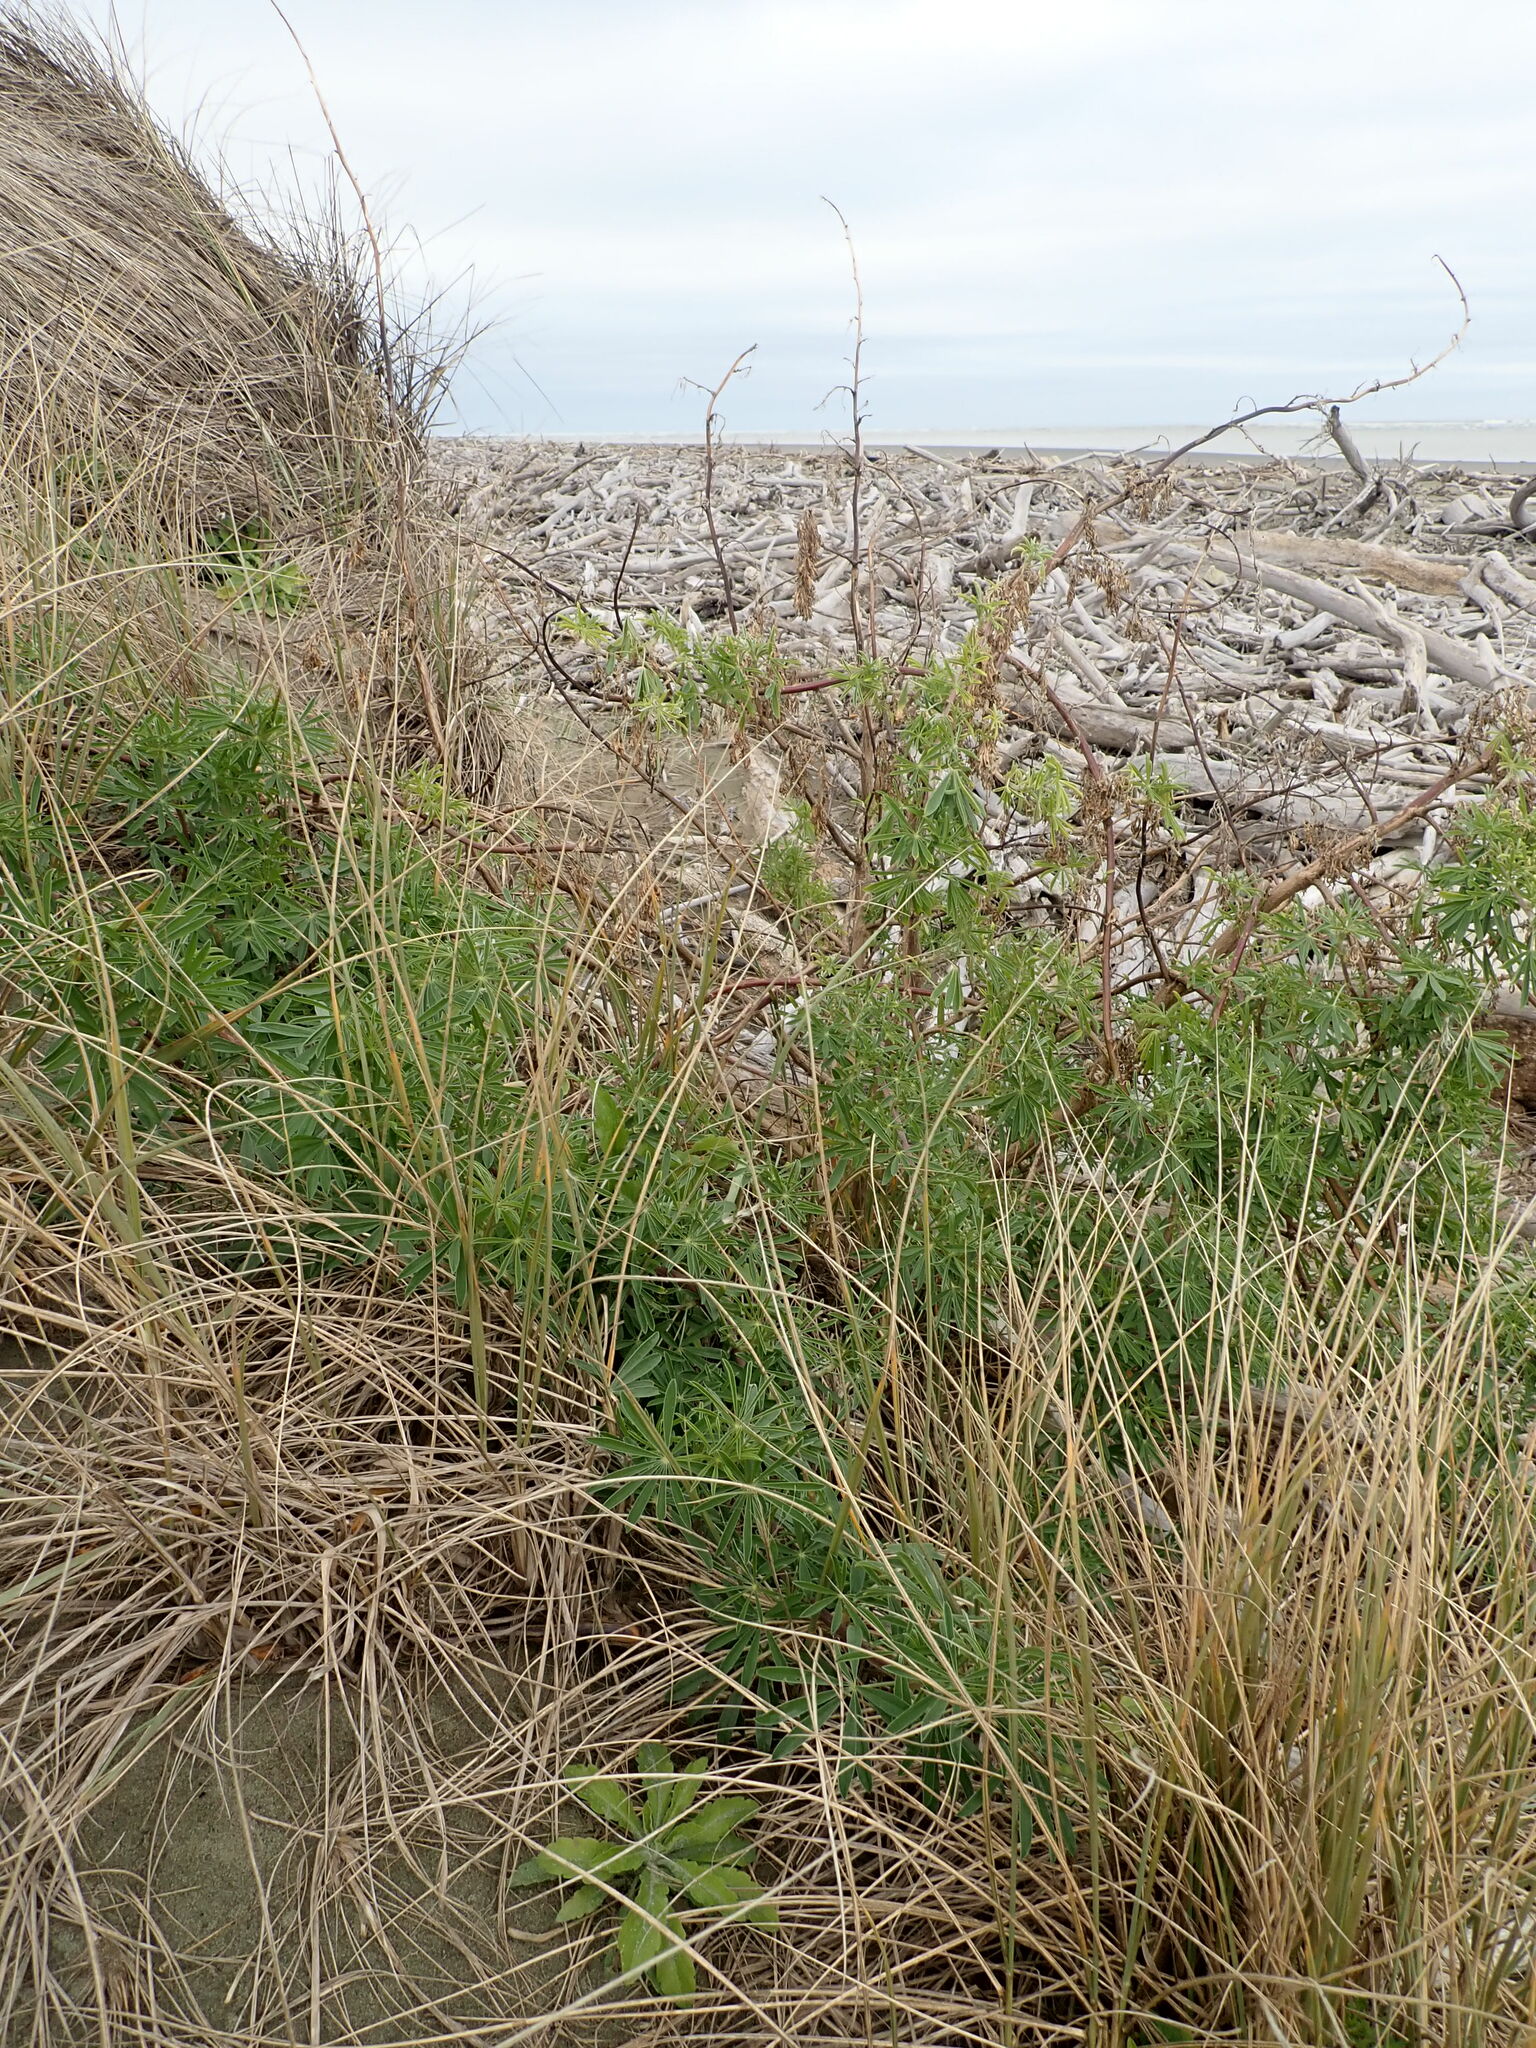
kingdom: Plantae
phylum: Tracheophyta
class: Magnoliopsida
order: Fabales
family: Fabaceae
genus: Lupinus
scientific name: Lupinus arboreus
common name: Yellow bush lupine
